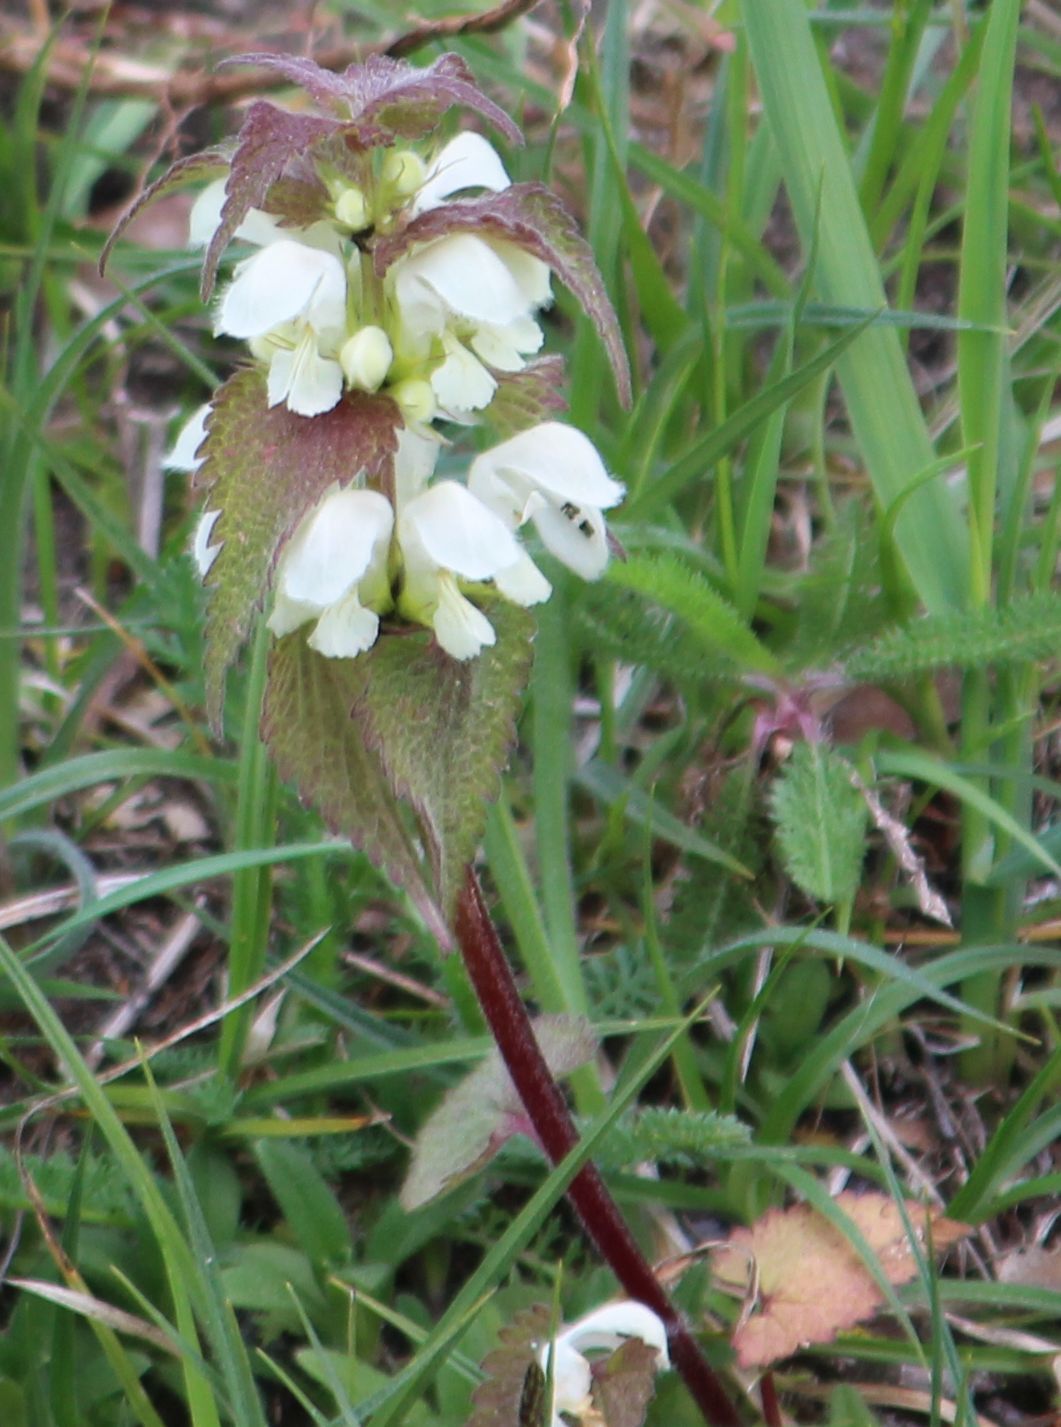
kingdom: Plantae
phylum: Tracheophyta
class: Magnoliopsida
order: Lamiales
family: Lamiaceae
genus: Lamium
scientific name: Lamium album
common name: White dead-nettle
